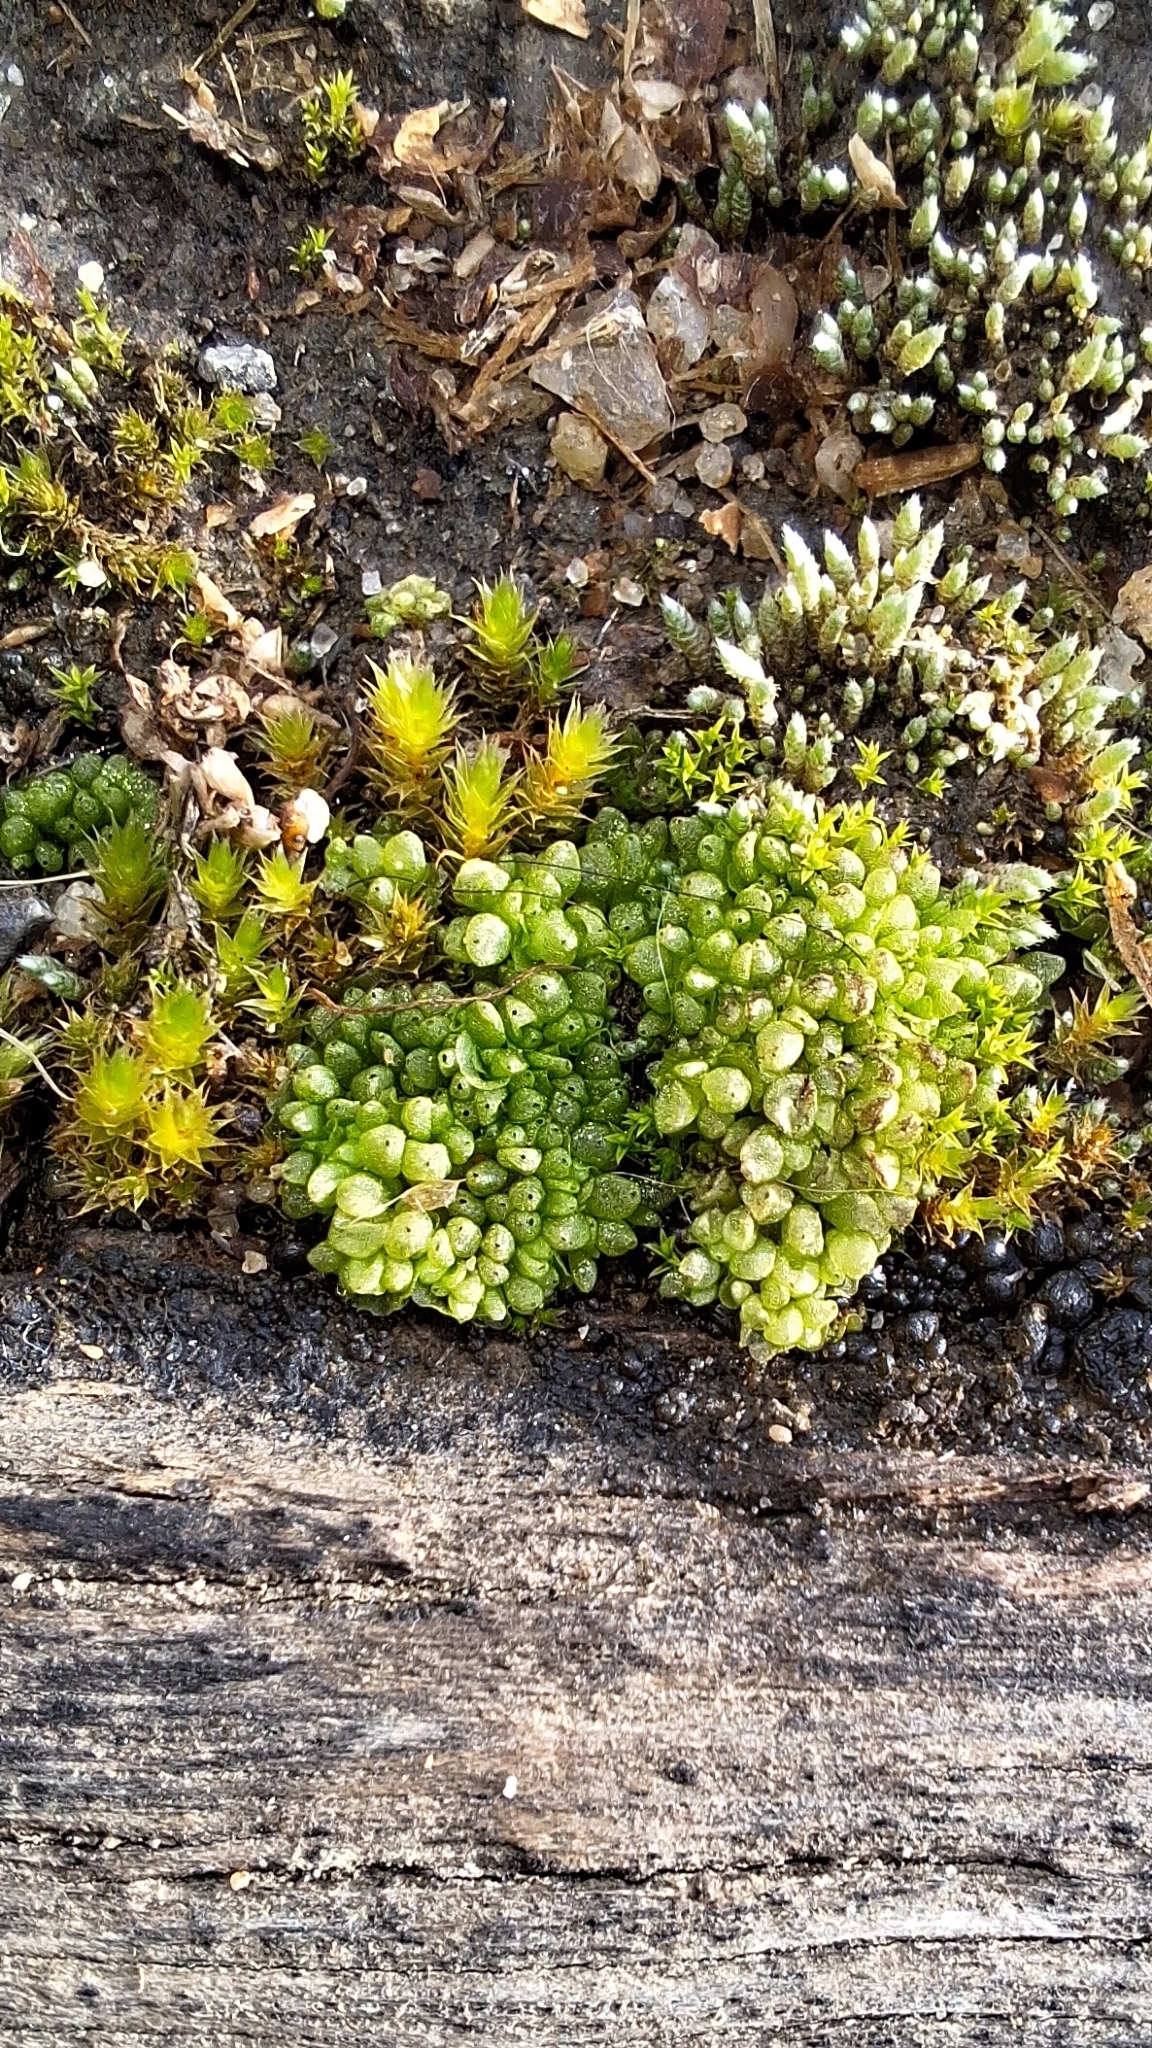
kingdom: Plantae
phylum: Marchantiophyta
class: Marchantiopsida
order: Sphaerocarpales
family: Sphaerocarpaceae
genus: Sphaerocarpos
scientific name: Sphaerocarpos texanus
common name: Texas balloonwort
